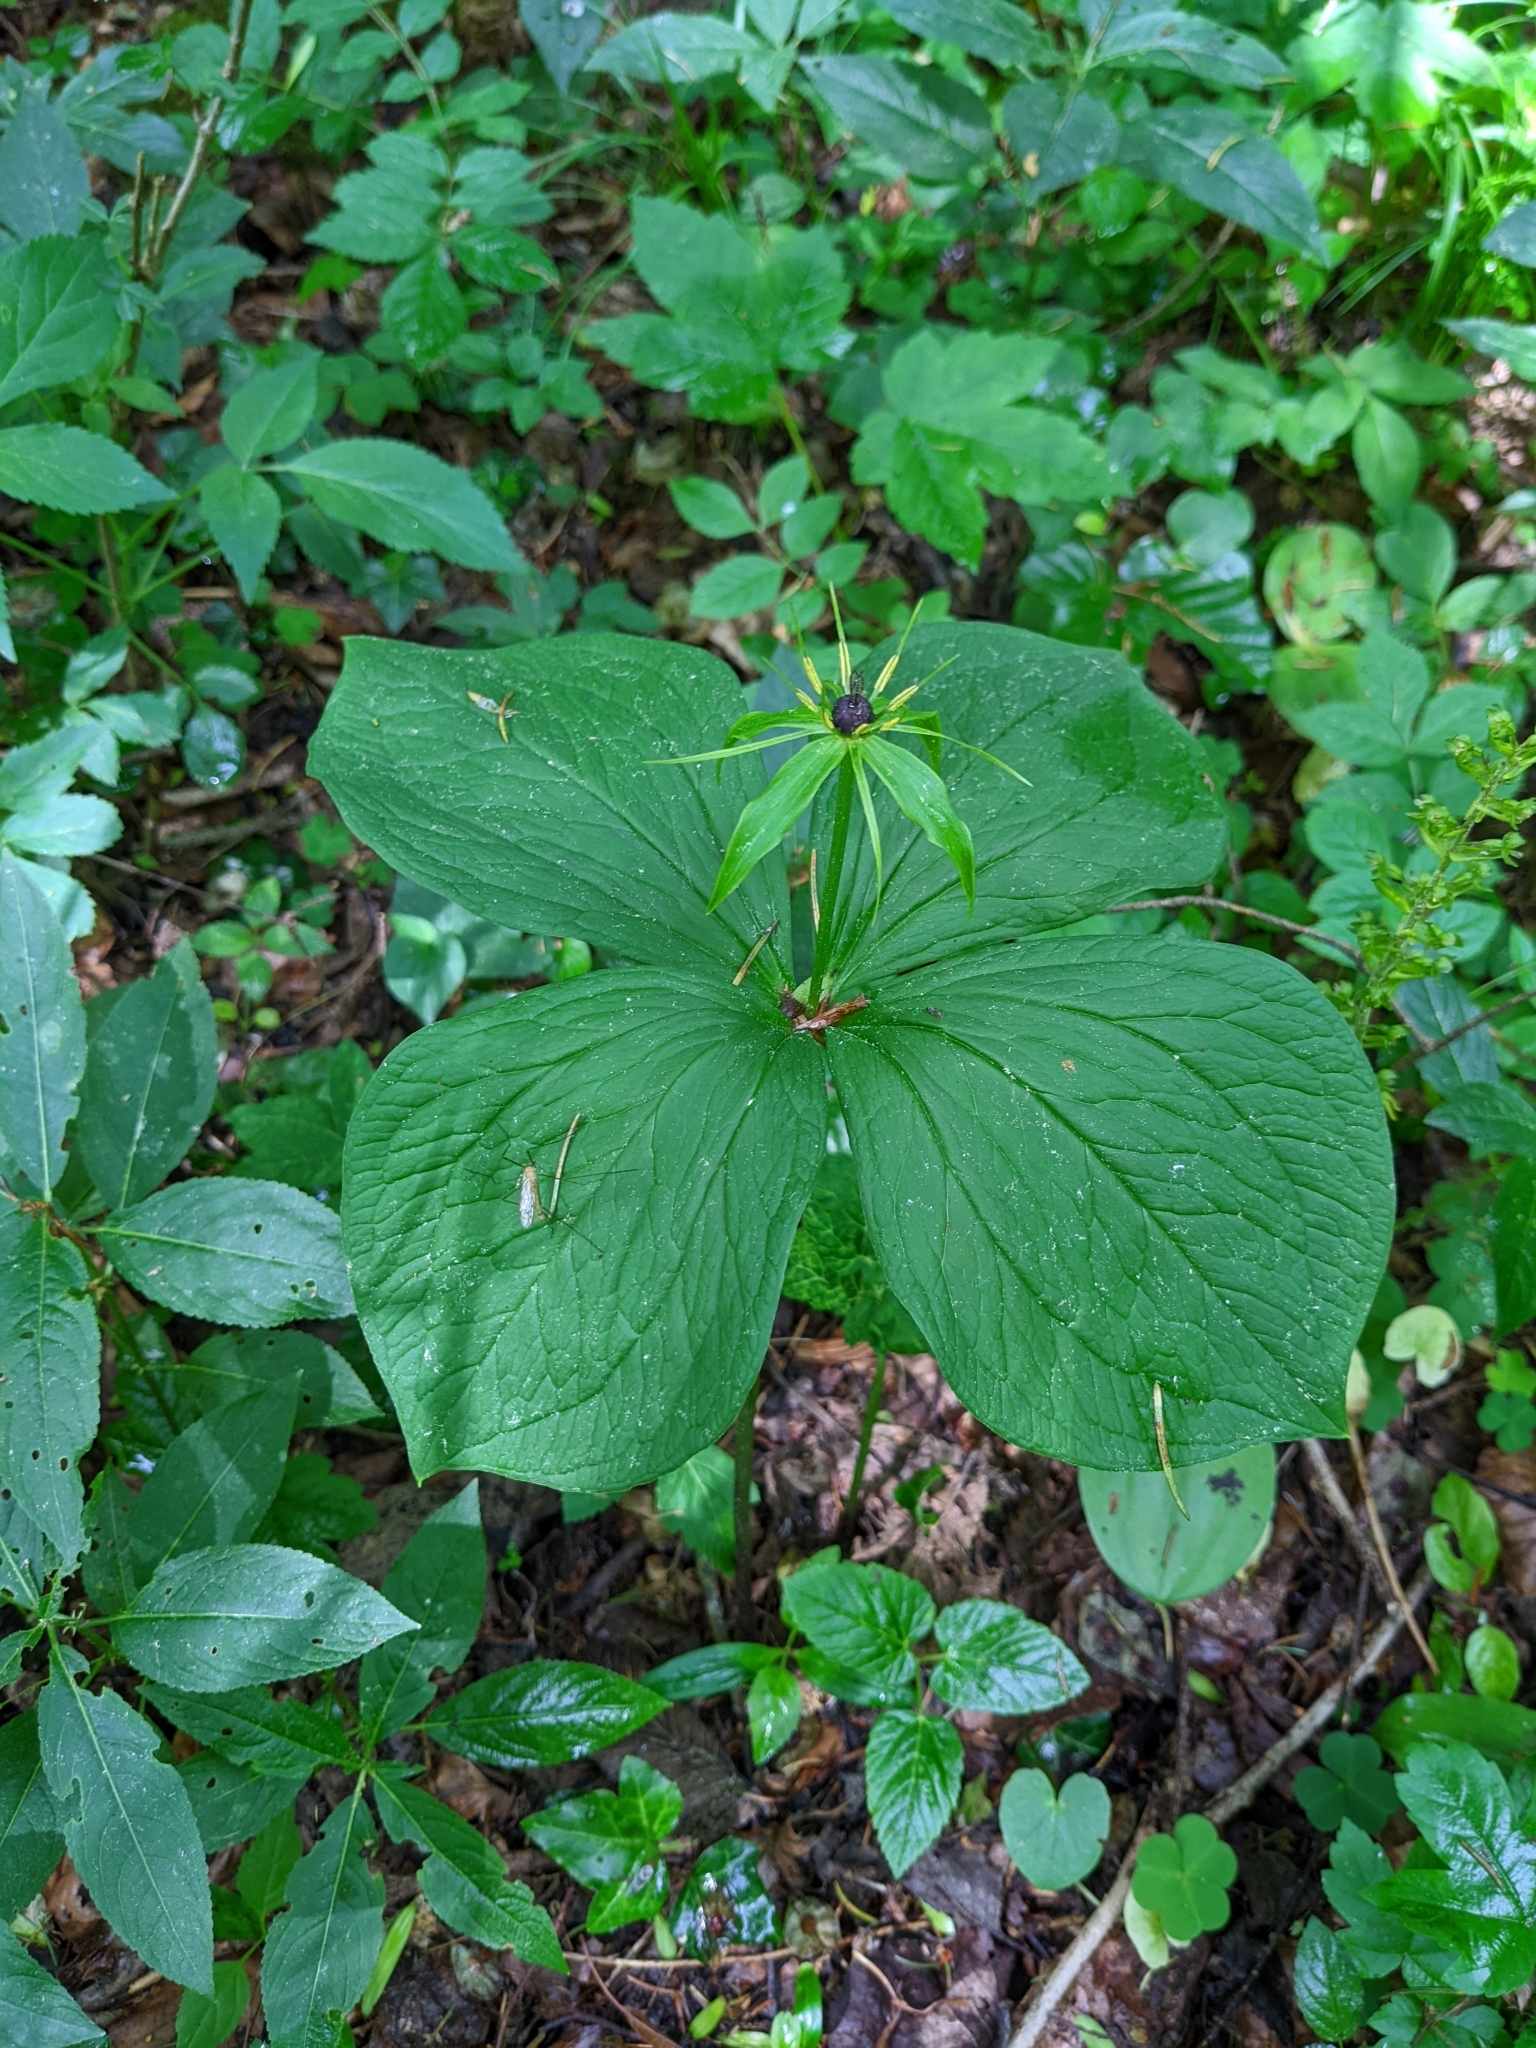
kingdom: Plantae
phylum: Tracheophyta
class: Liliopsida
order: Liliales
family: Melanthiaceae
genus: Paris
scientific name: Paris quadrifolia
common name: Herb-paris
